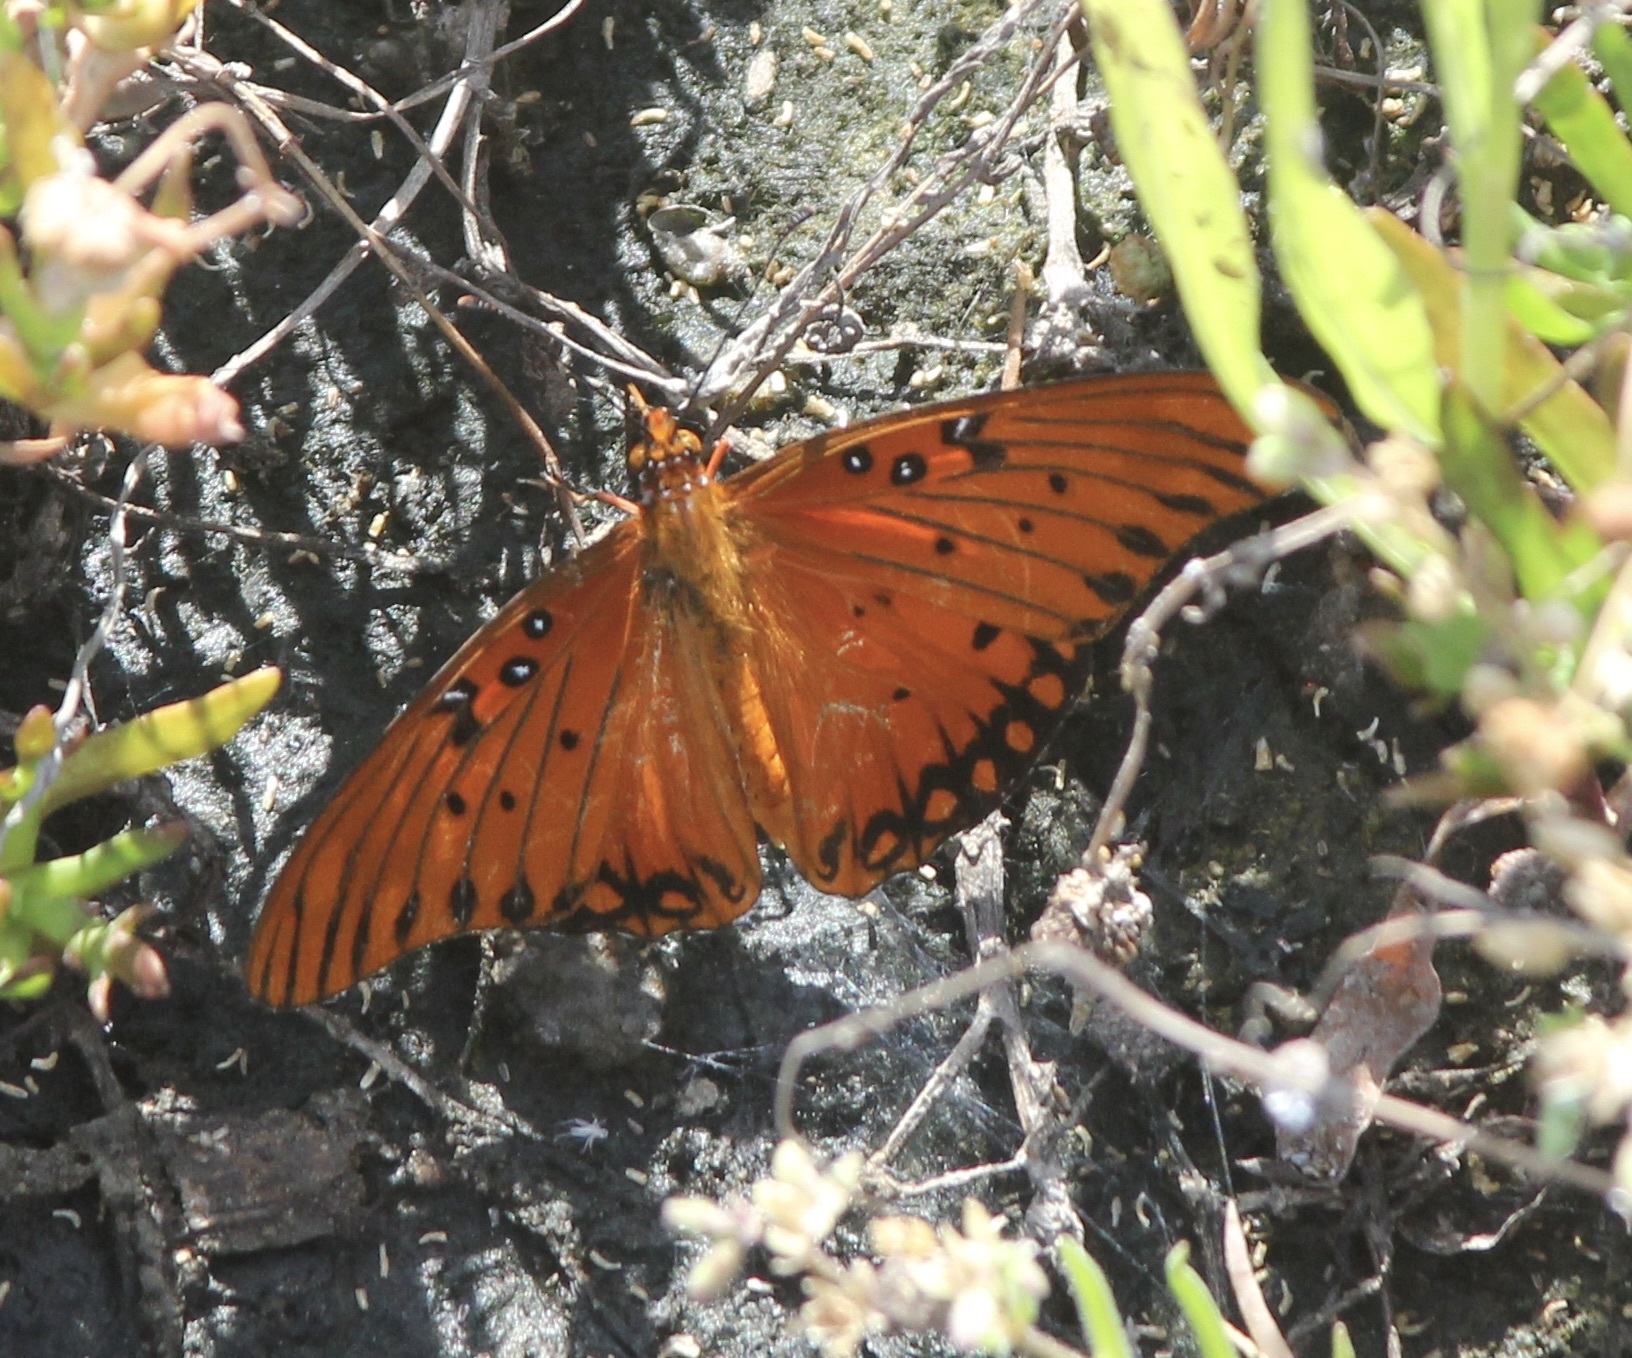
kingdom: Animalia
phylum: Arthropoda
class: Insecta
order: Lepidoptera
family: Nymphalidae
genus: Dione
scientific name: Dione vanillae
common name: Gulf fritillary
